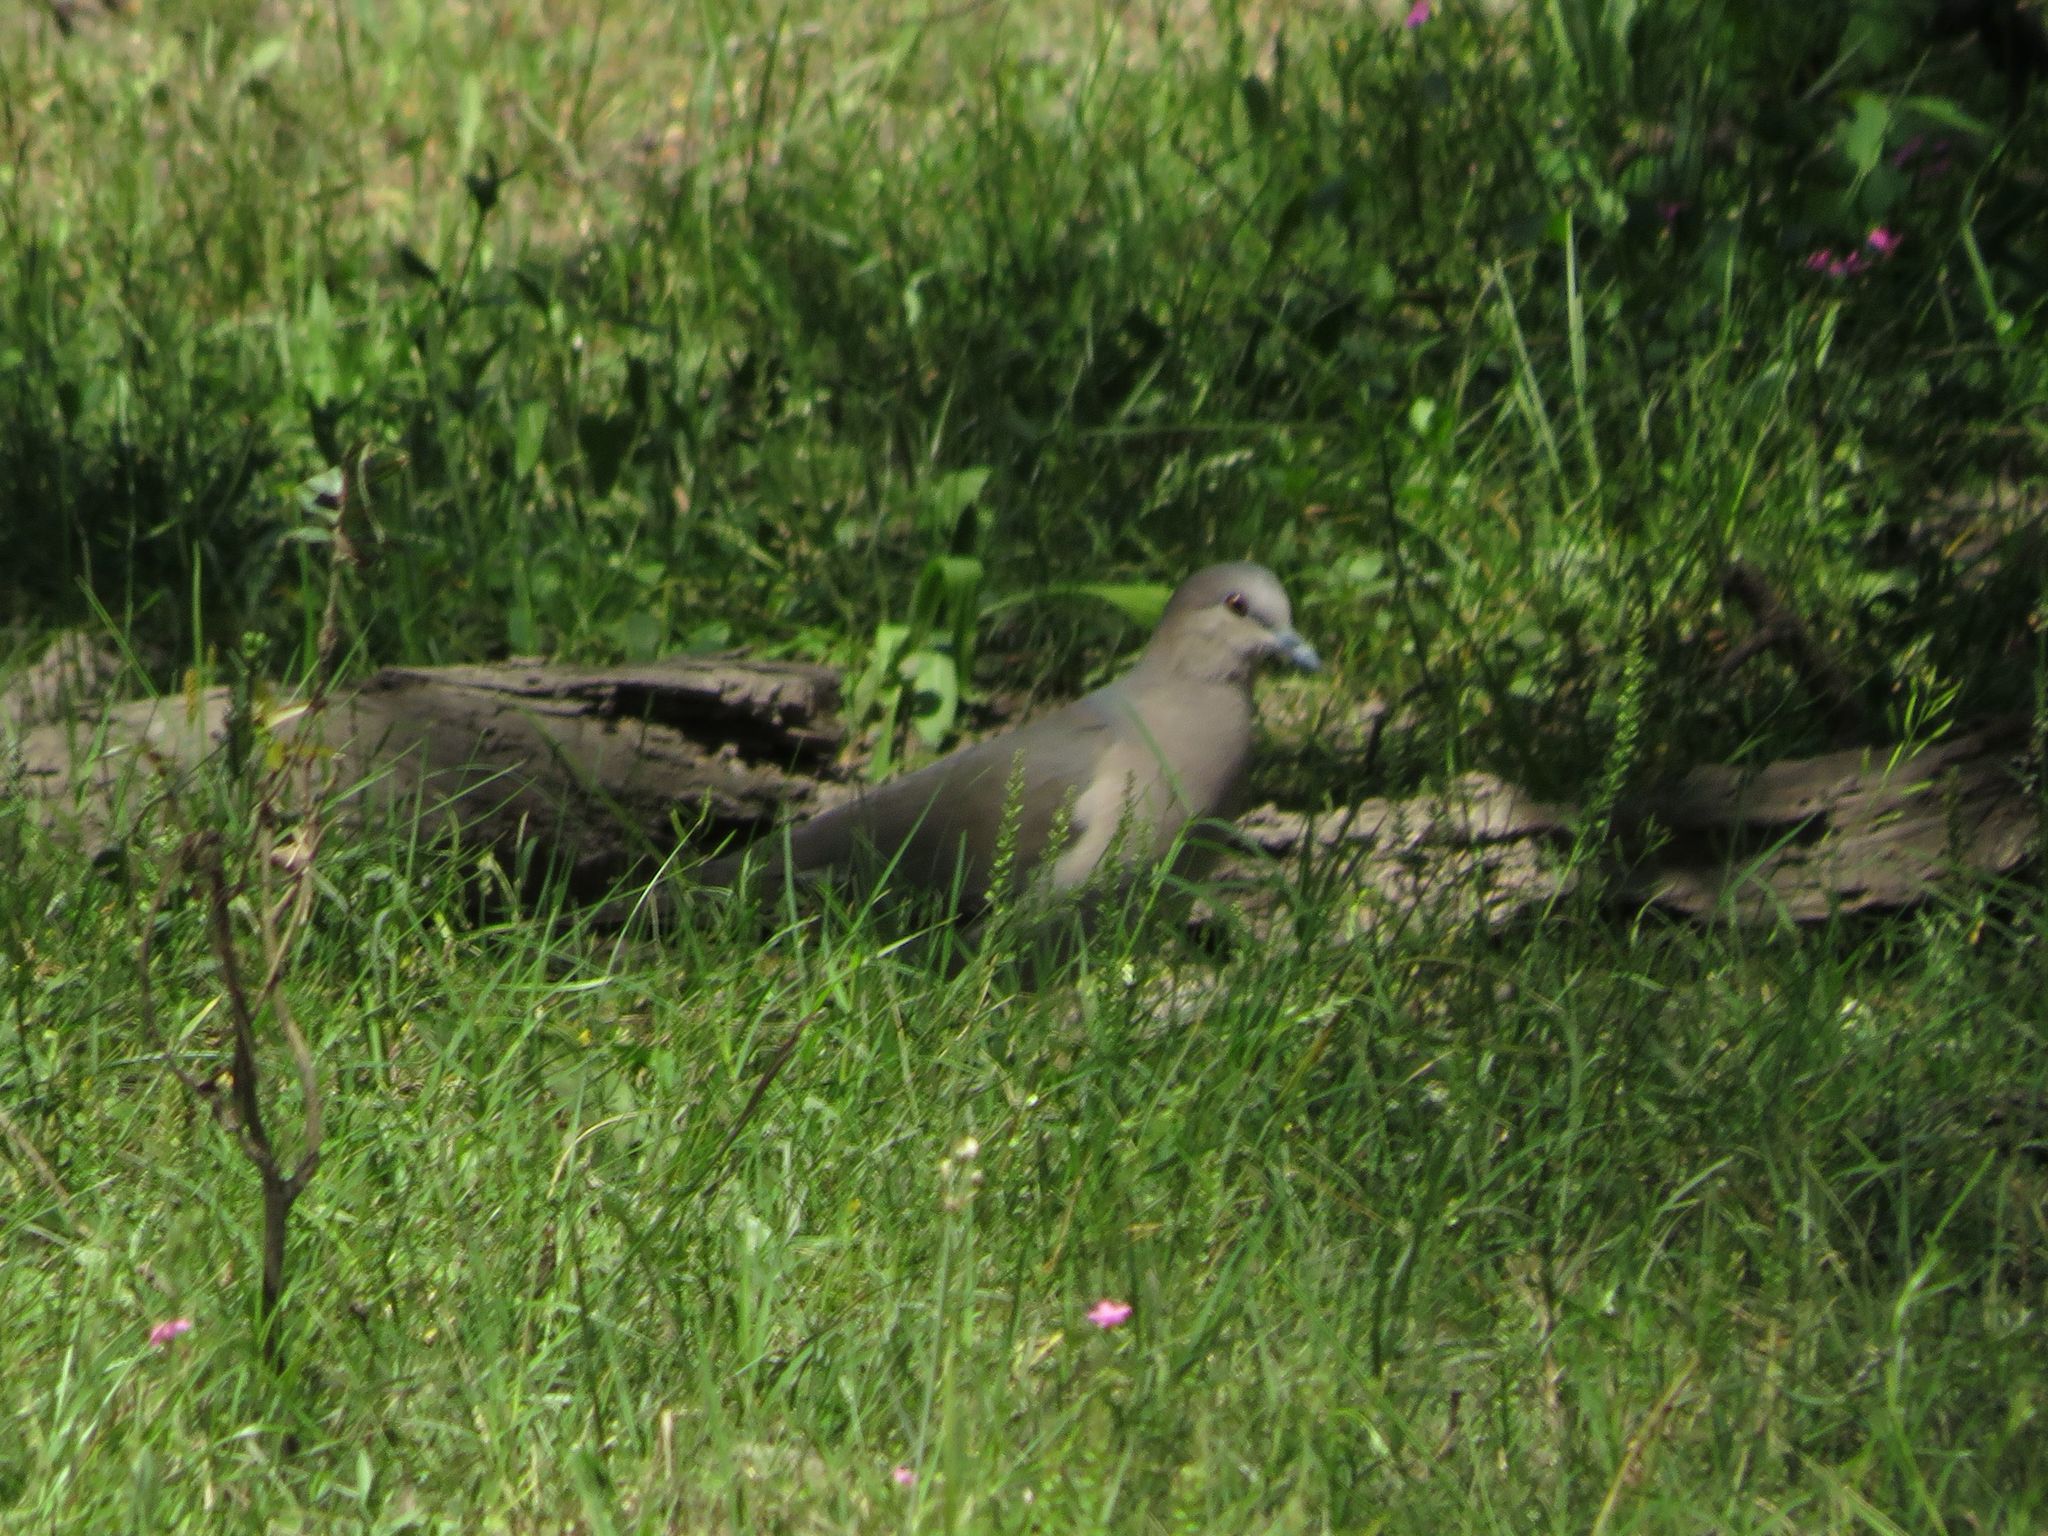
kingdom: Animalia
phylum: Chordata
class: Aves
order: Columbiformes
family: Columbidae
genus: Leptotila
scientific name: Leptotila verreauxi
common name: White-tipped dove
